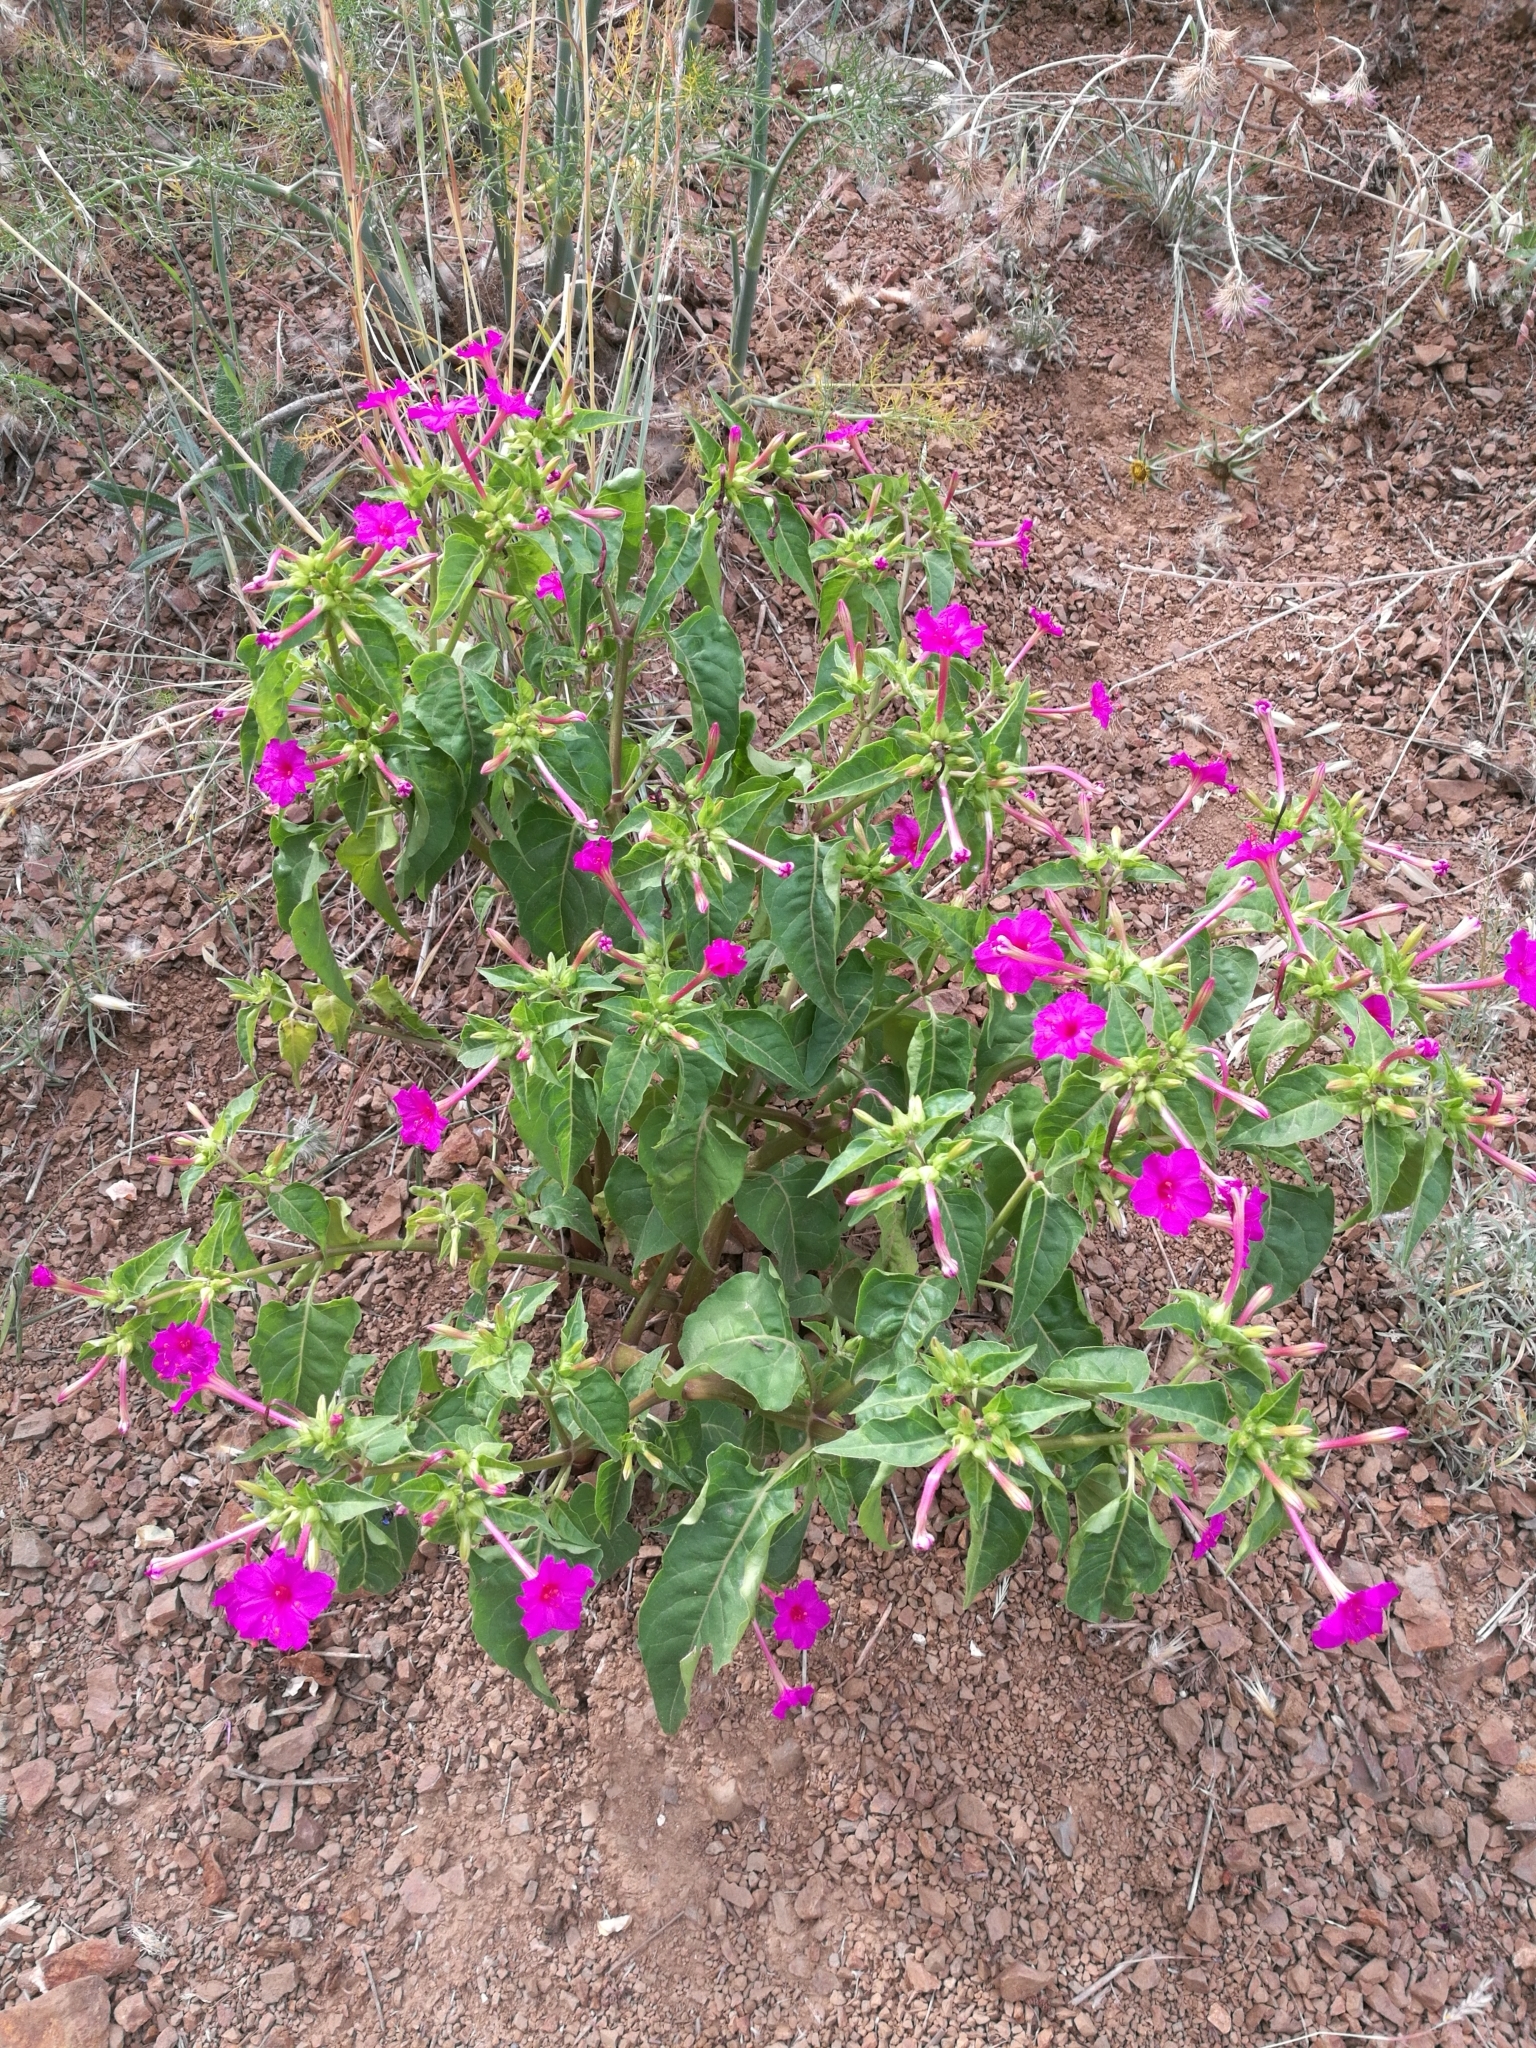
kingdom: Plantae
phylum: Tracheophyta
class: Magnoliopsida
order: Caryophyllales
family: Nyctaginaceae
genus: Mirabilis
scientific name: Mirabilis jalapa
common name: Marvel-of-peru
